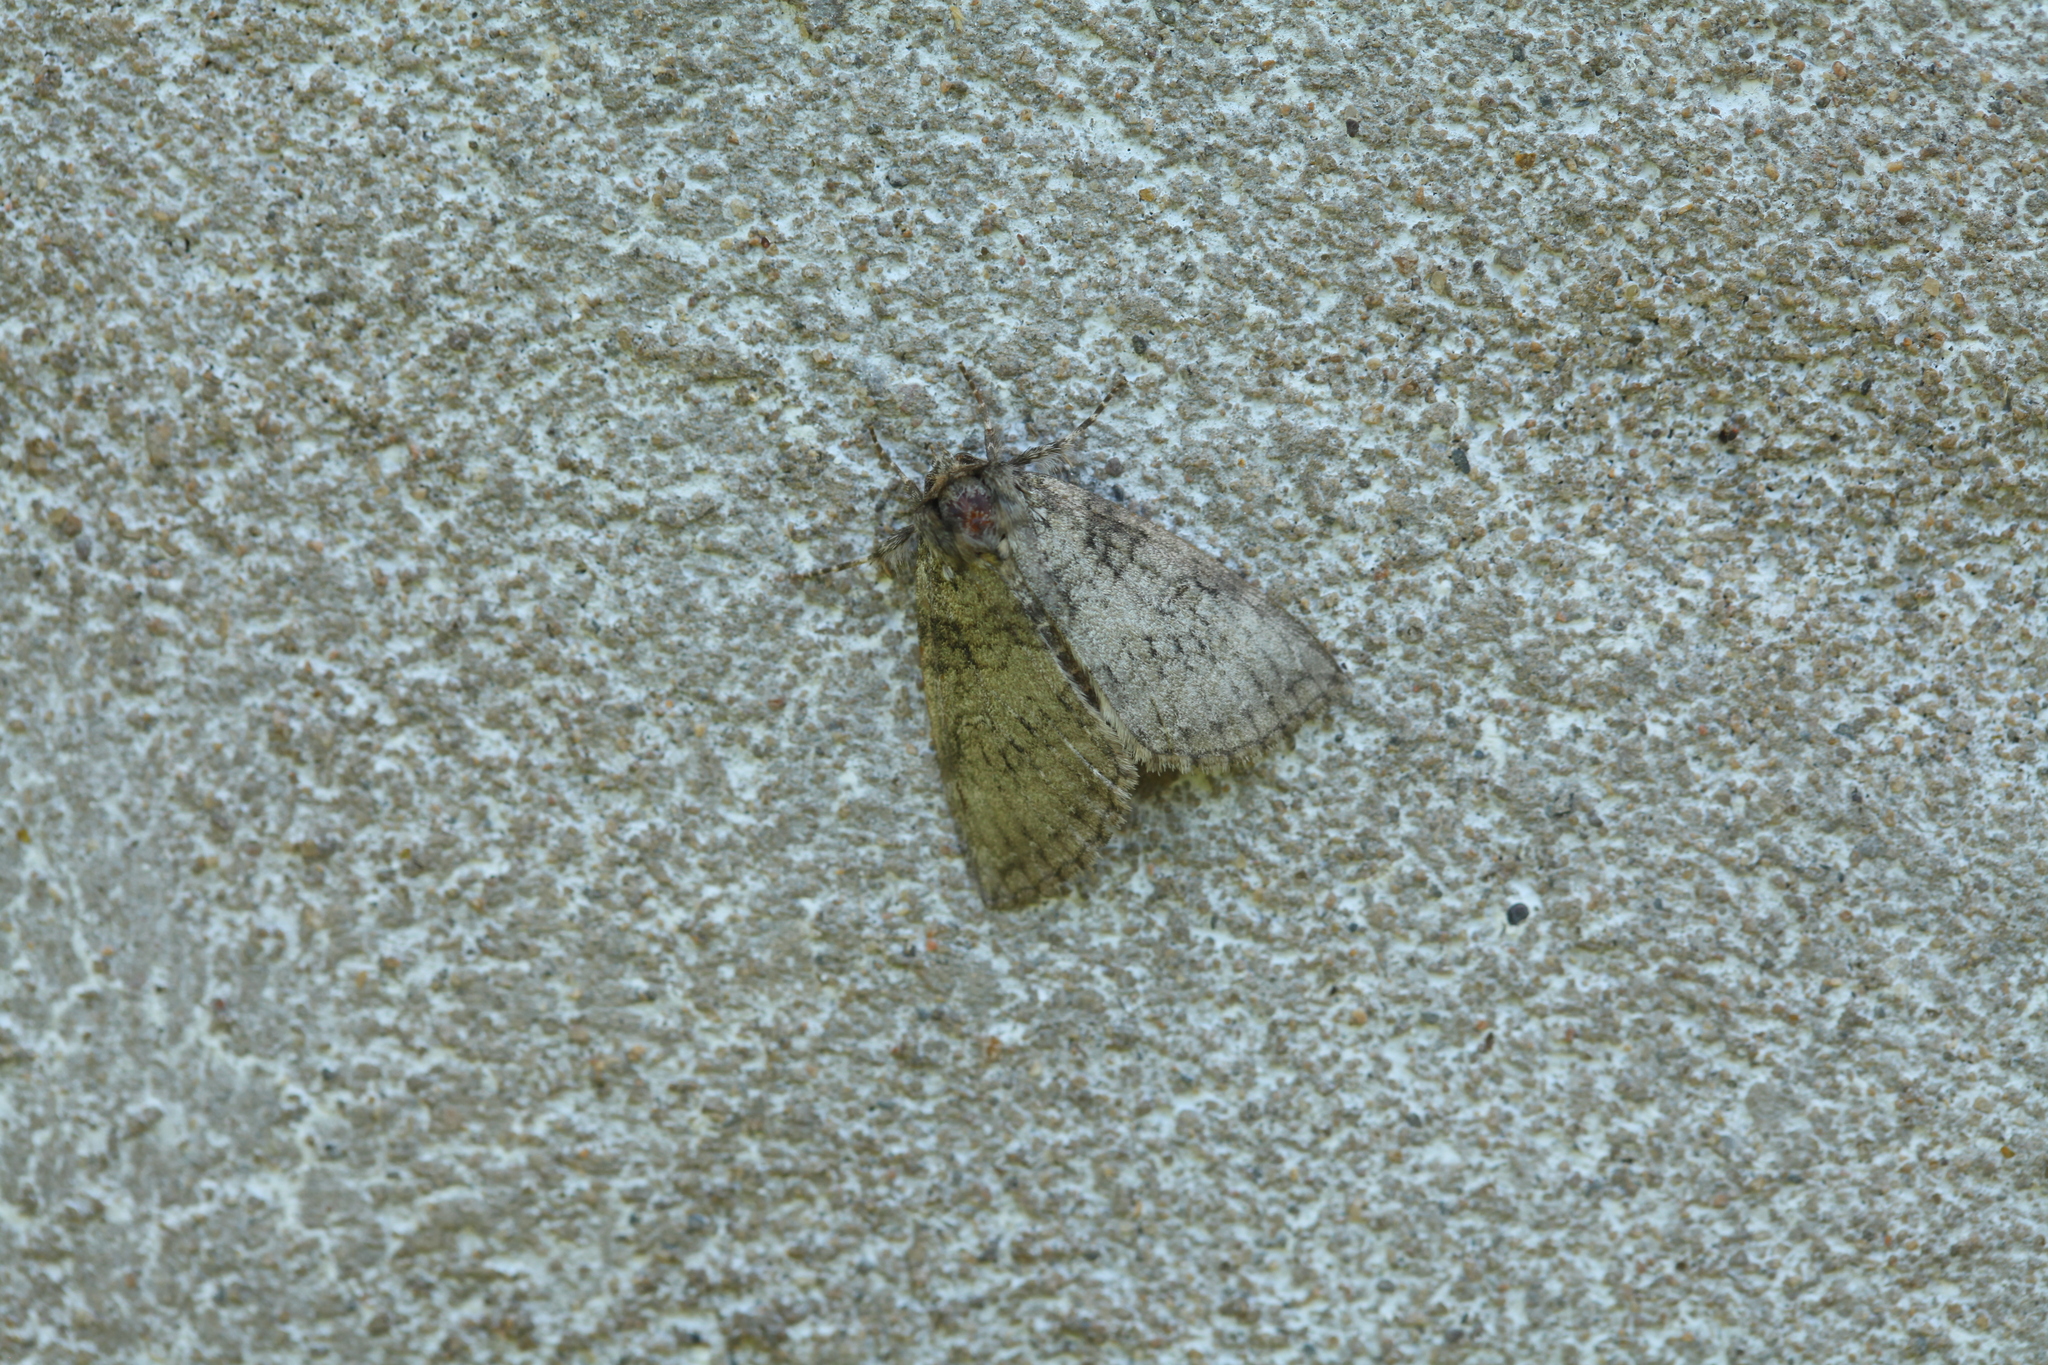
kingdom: Animalia
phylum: Arthropoda
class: Insecta
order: Lepidoptera
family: Drepanidae
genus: Parapsestis
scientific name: Parapsestis argenteopicta
